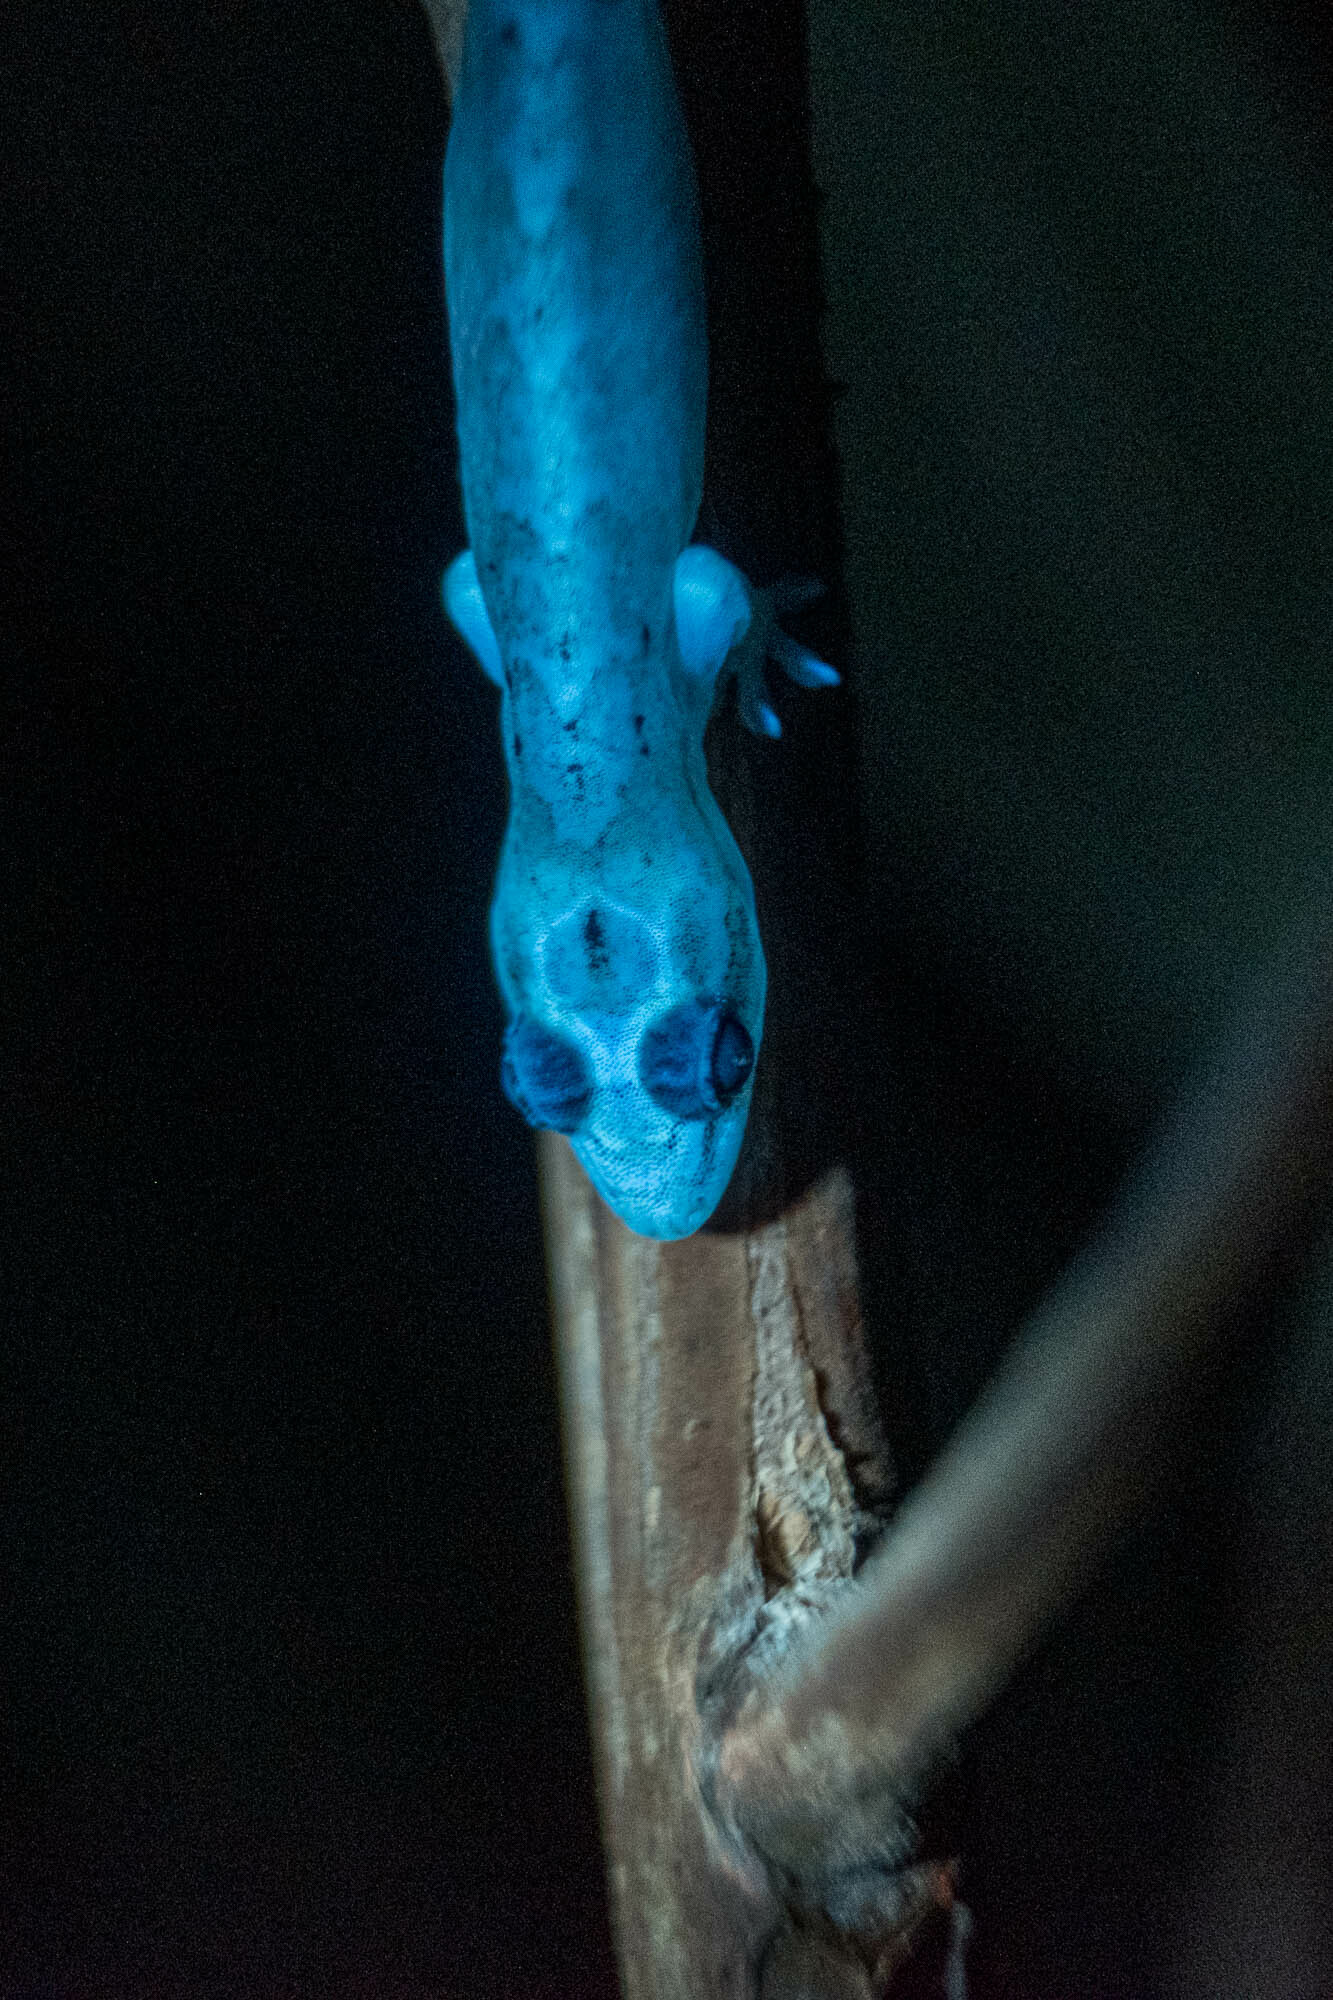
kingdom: Animalia
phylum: Chordata
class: Squamata
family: Gekkonidae
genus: Lepidodactylus
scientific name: Lepidodactylus lugubris
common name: Mourning gecko
